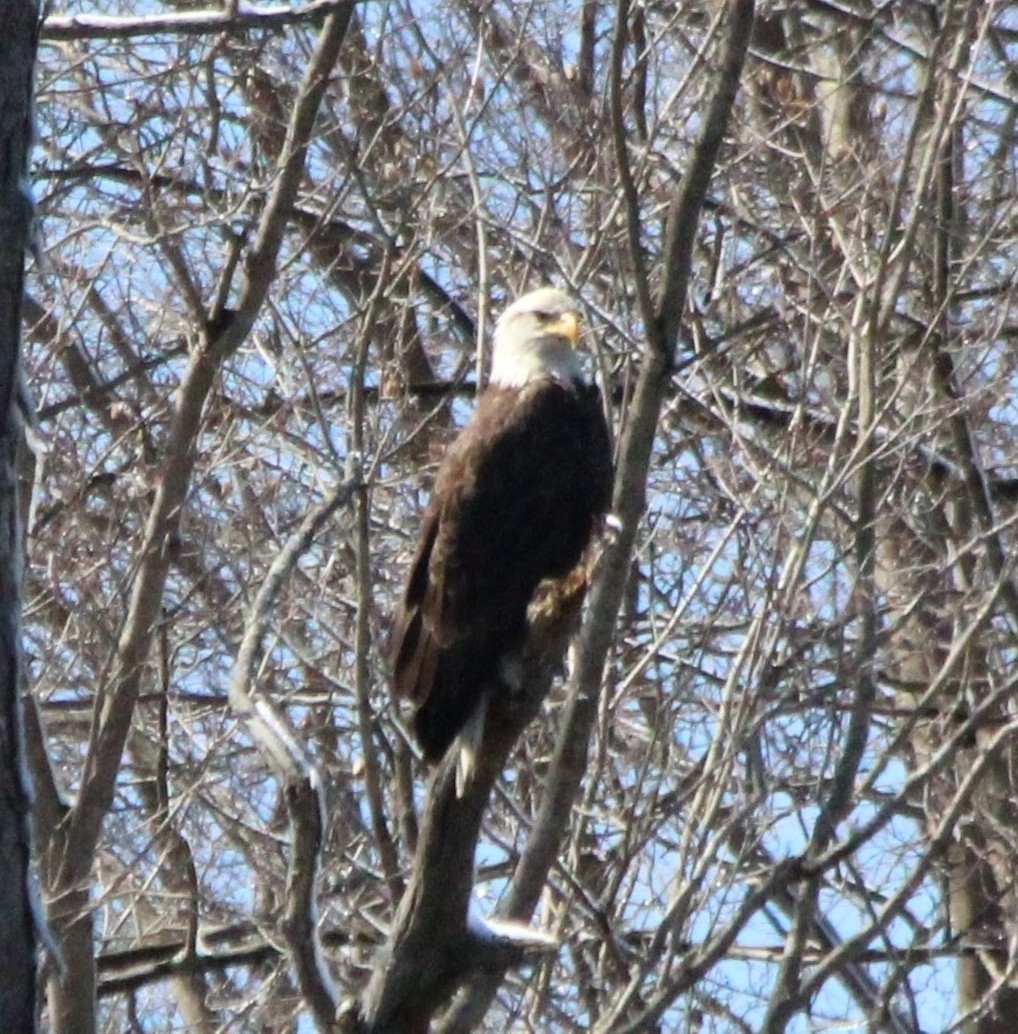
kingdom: Animalia
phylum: Chordata
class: Aves
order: Accipitriformes
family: Accipitridae
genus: Haliaeetus
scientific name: Haliaeetus leucocephalus
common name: Bald eagle
